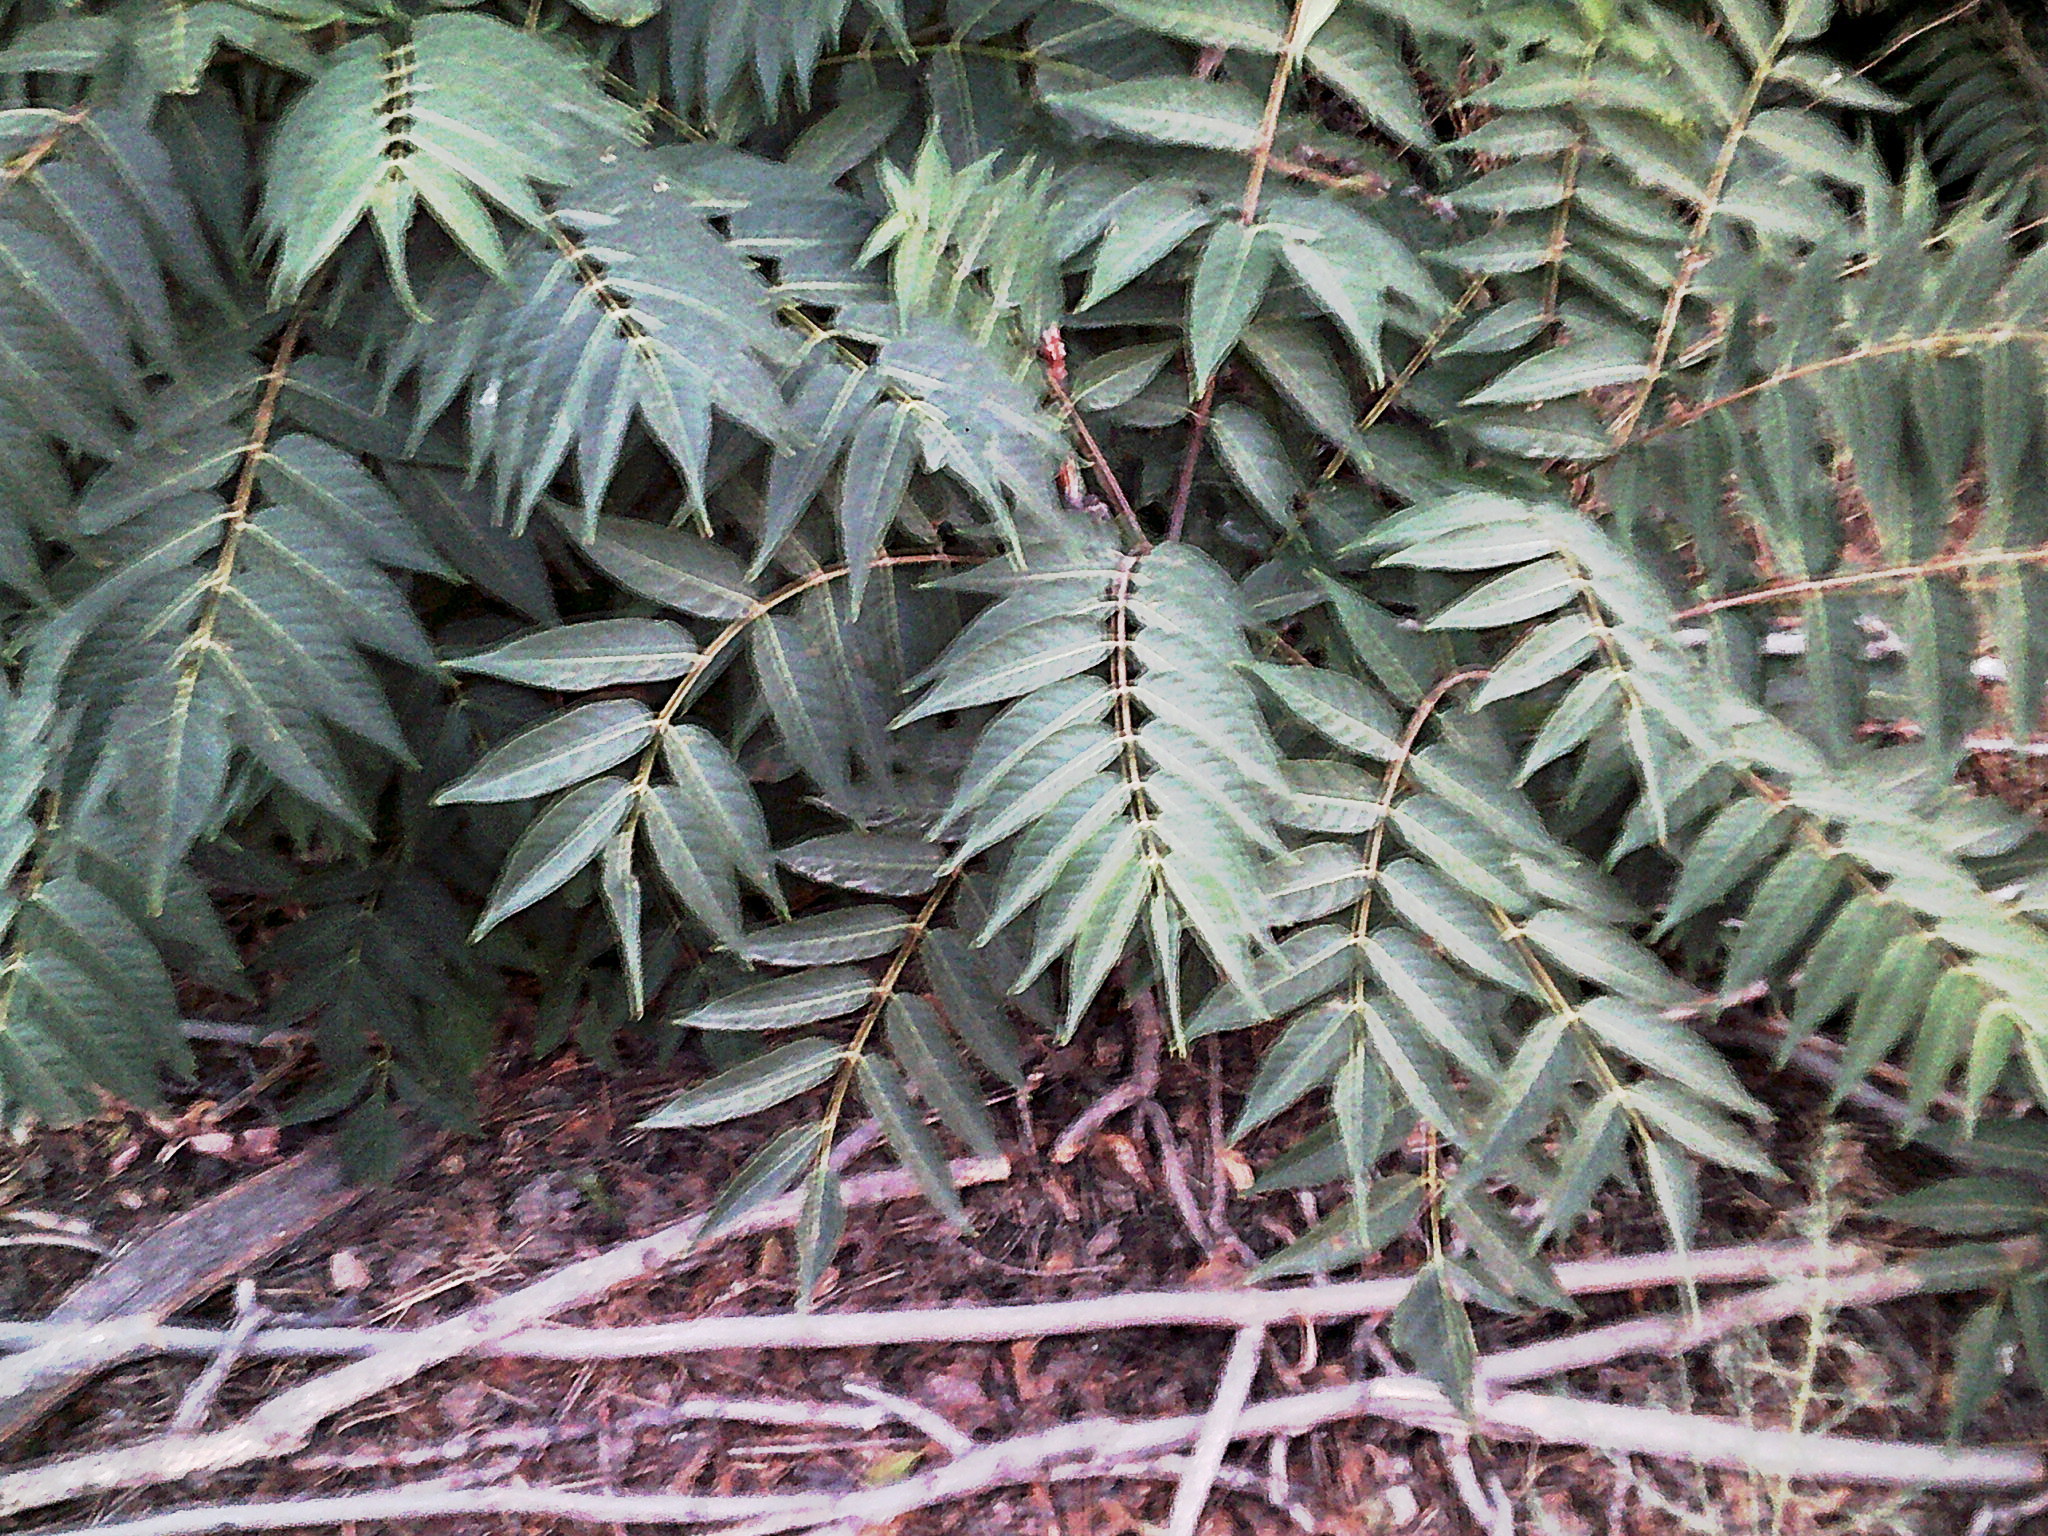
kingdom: Plantae
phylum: Tracheophyta
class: Magnoliopsida
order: Fagales
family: Juglandaceae
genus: Juglans
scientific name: Juglans major
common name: Arizona walnut
